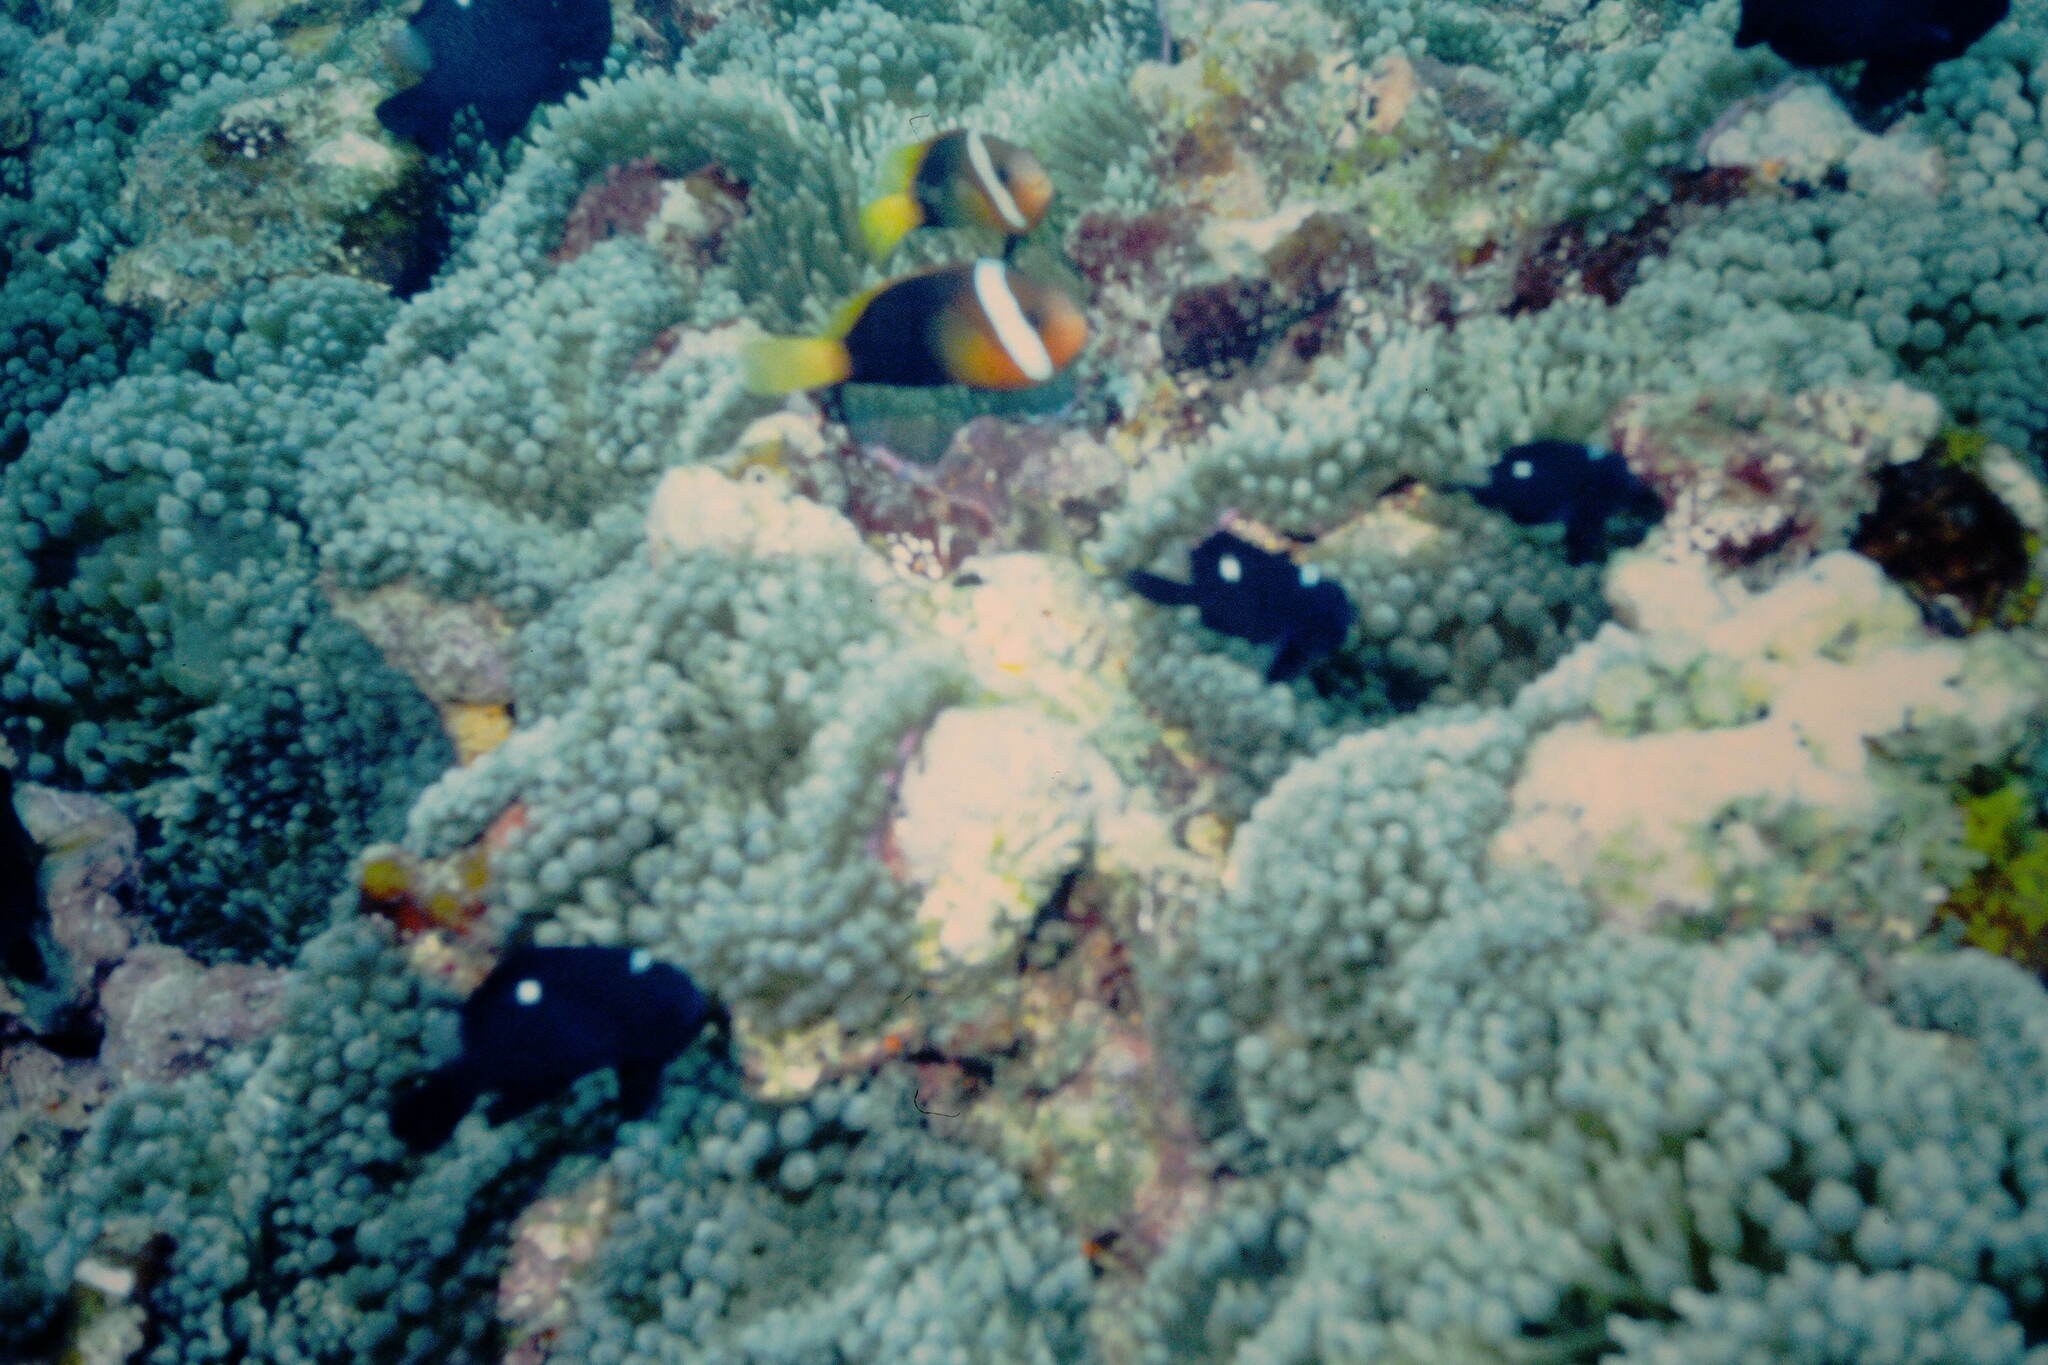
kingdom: Animalia
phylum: Chordata
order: Perciformes
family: Pomacentridae
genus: Dascyllus
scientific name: Dascyllus trimaculatus
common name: Threespot dascyllus
